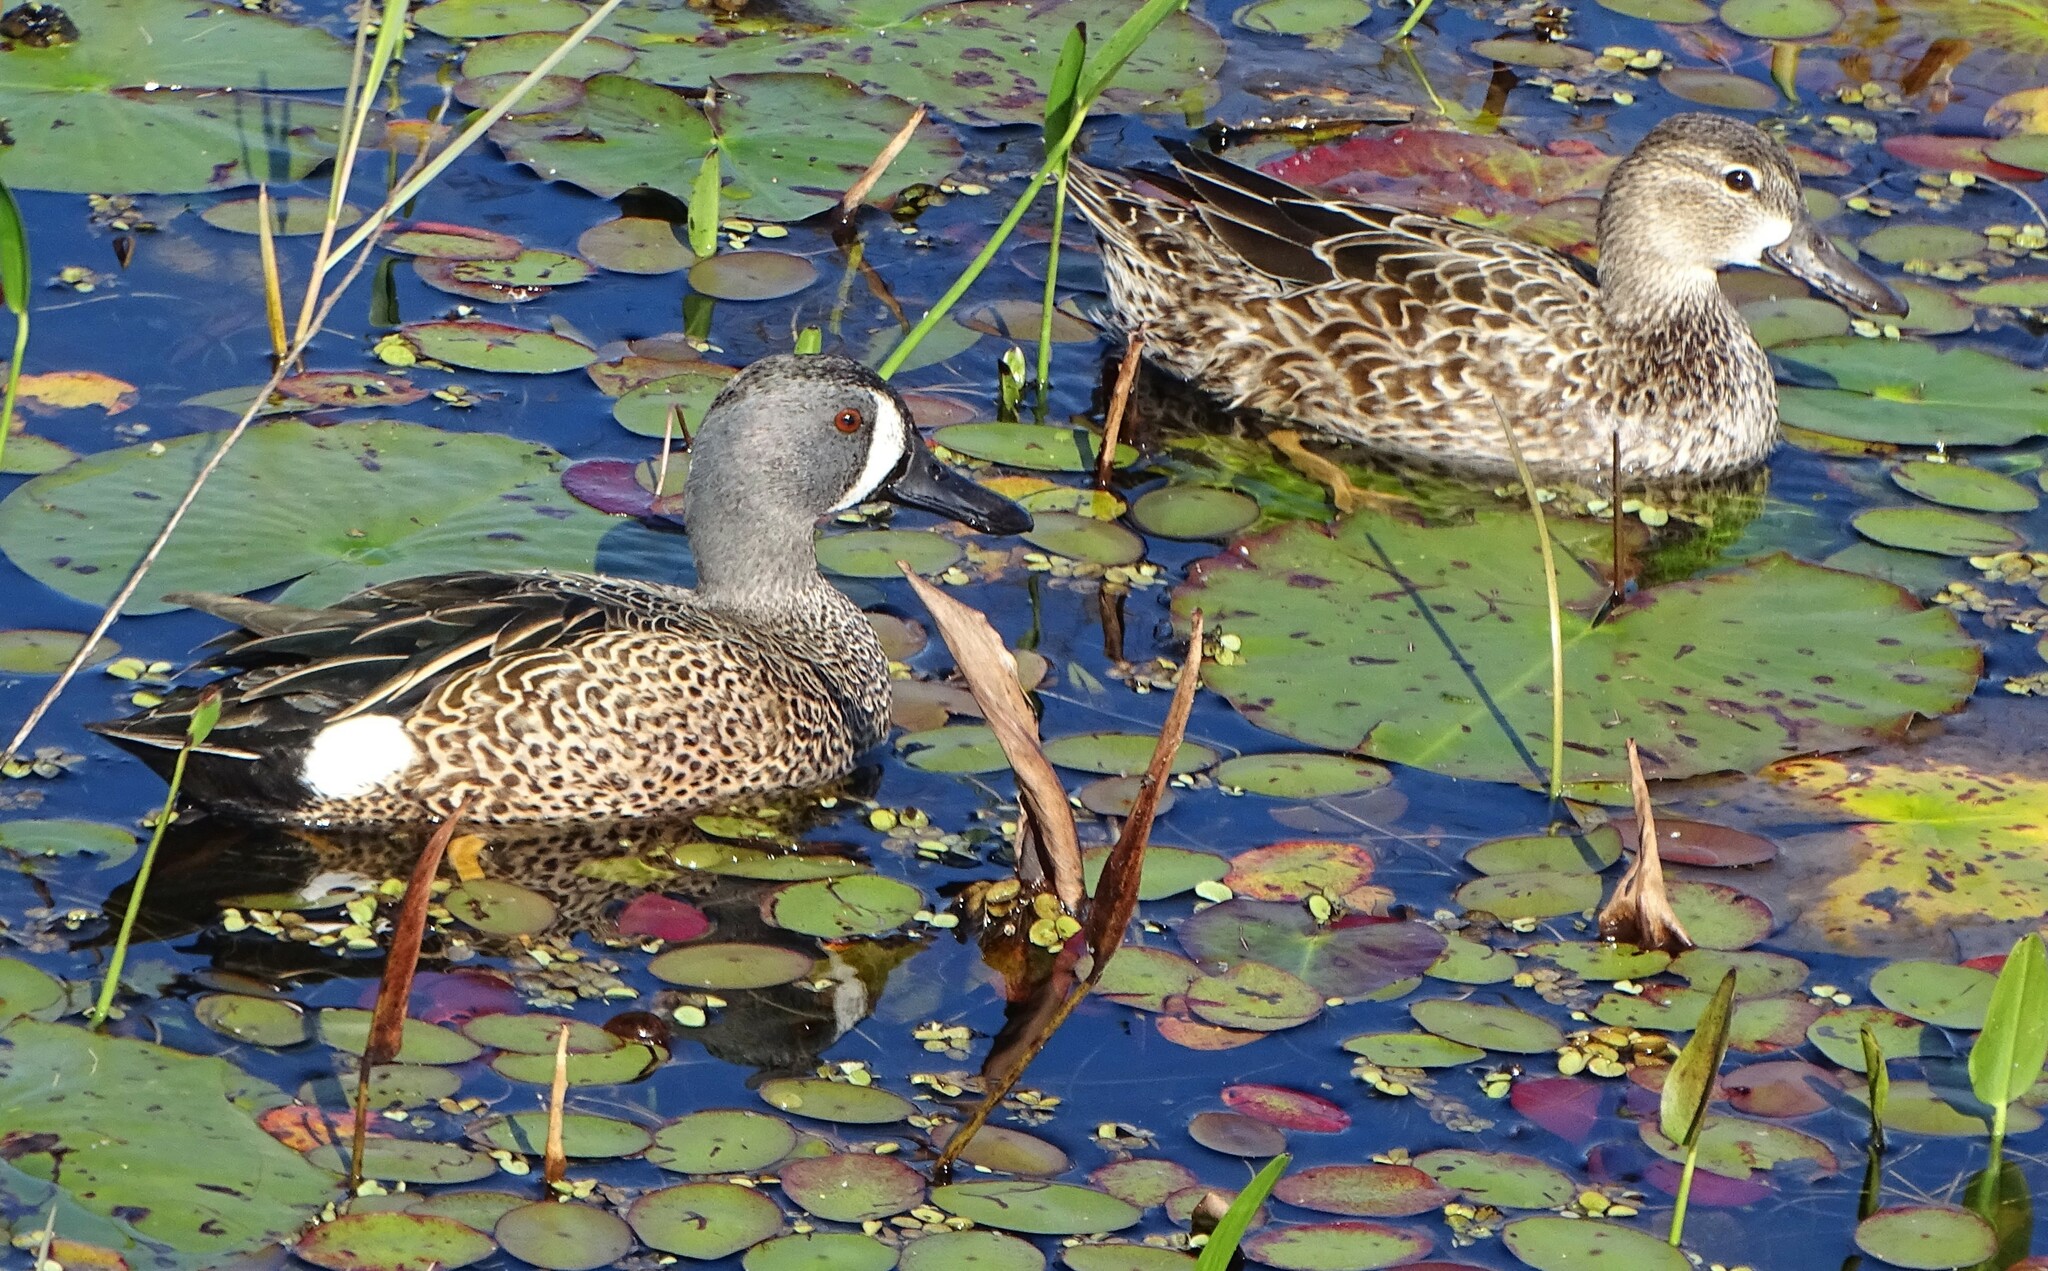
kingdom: Animalia
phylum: Chordata
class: Aves
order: Anseriformes
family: Anatidae
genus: Spatula
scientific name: Spatula discors
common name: Blue-winged teal
